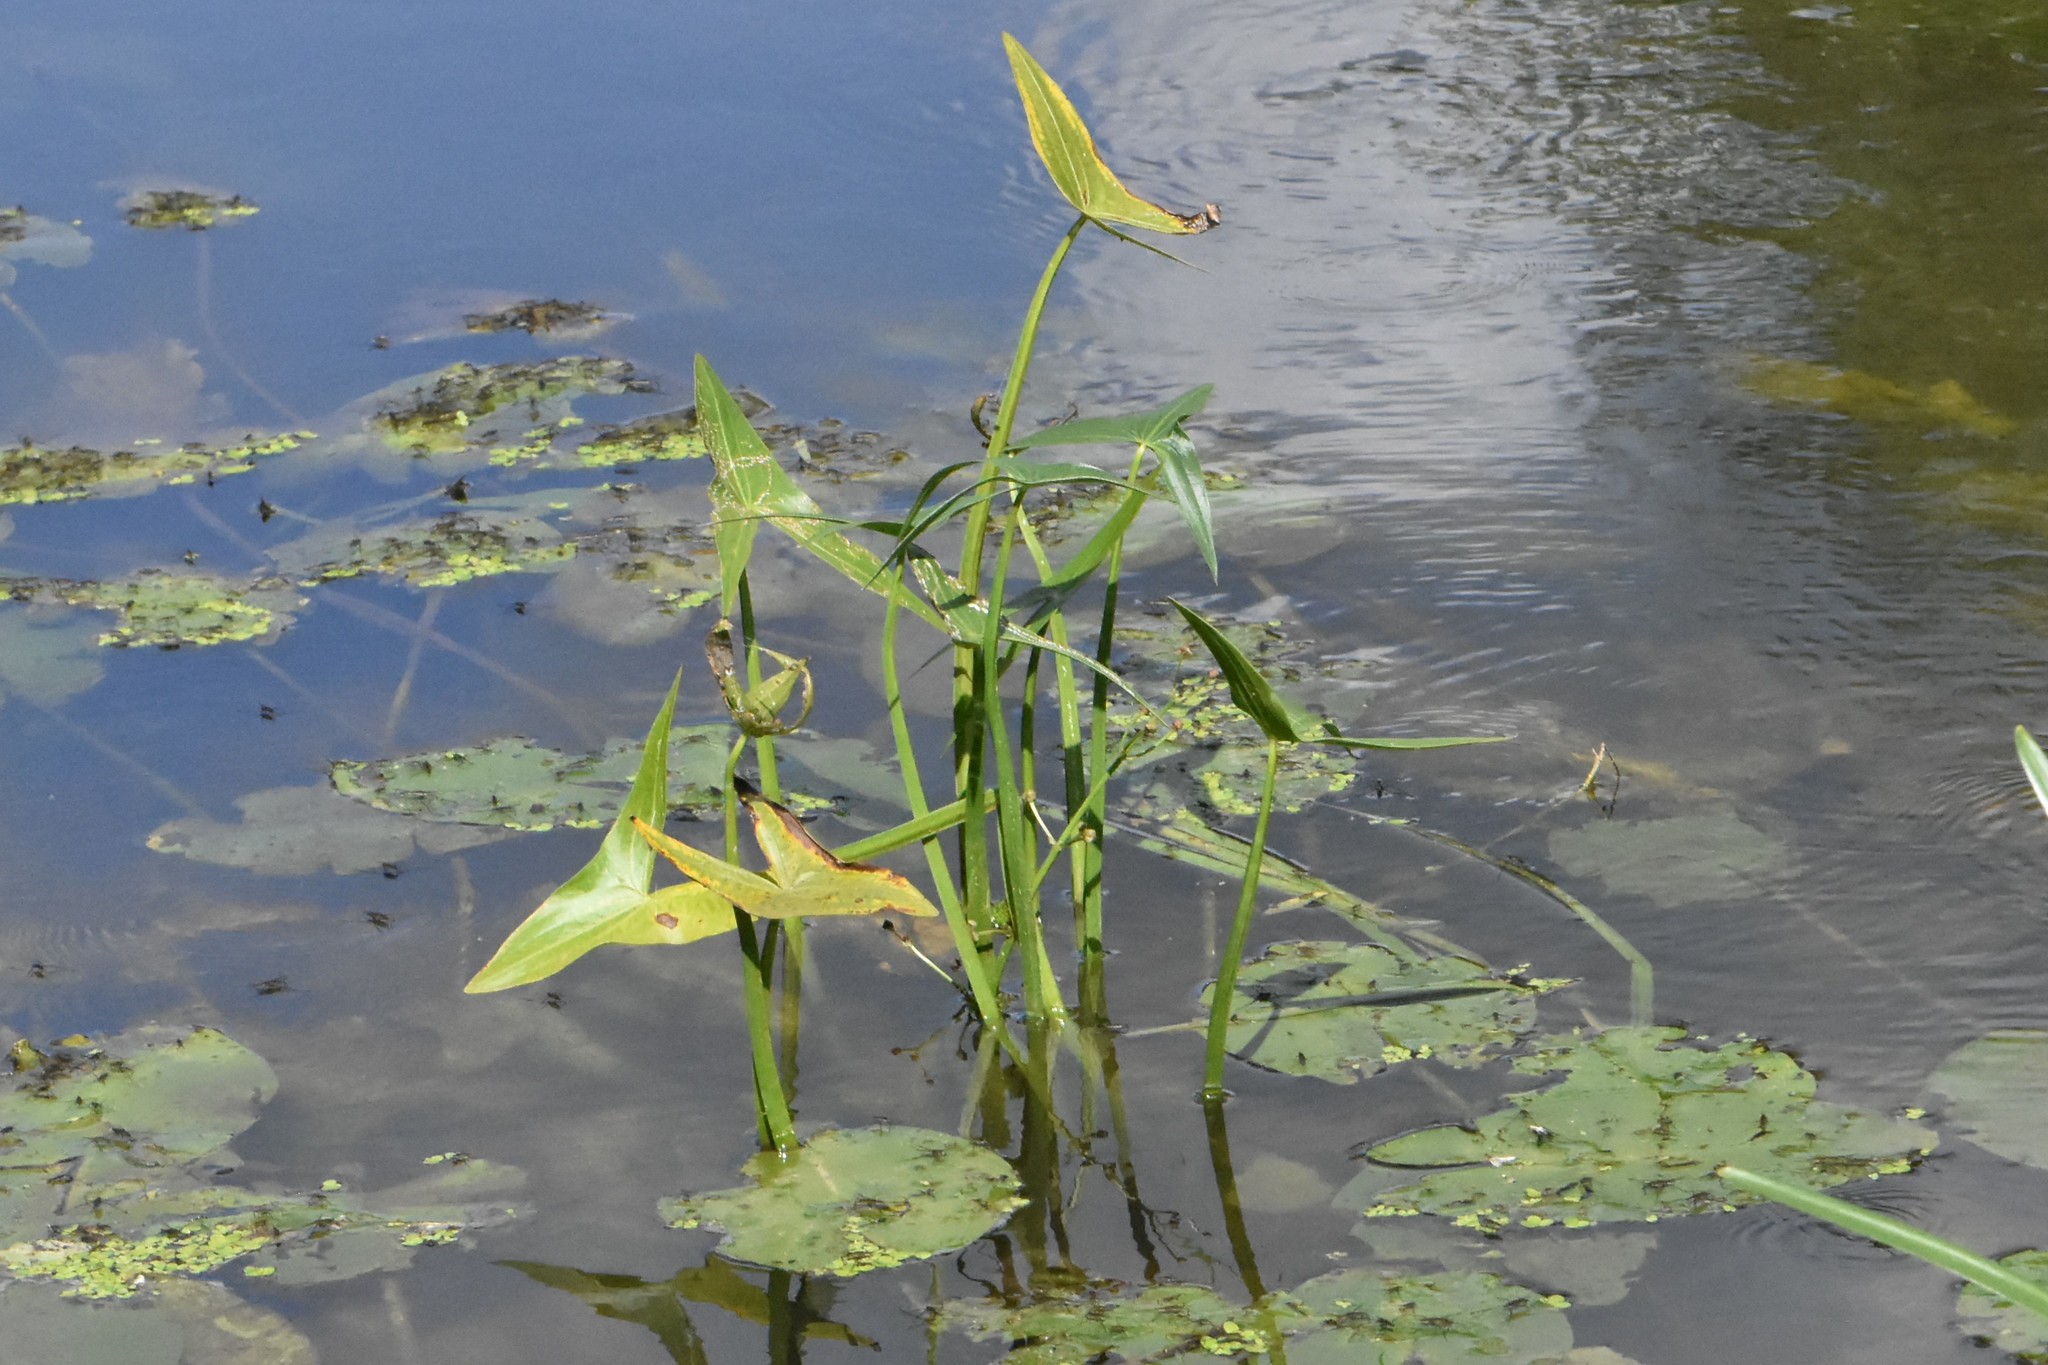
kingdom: Plantae
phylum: Tracheophyta
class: Liliopsida
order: Alismatales
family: Alismataceae
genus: Sagittaria
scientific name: Sagittaria sagittifolia
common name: Arrowhead
